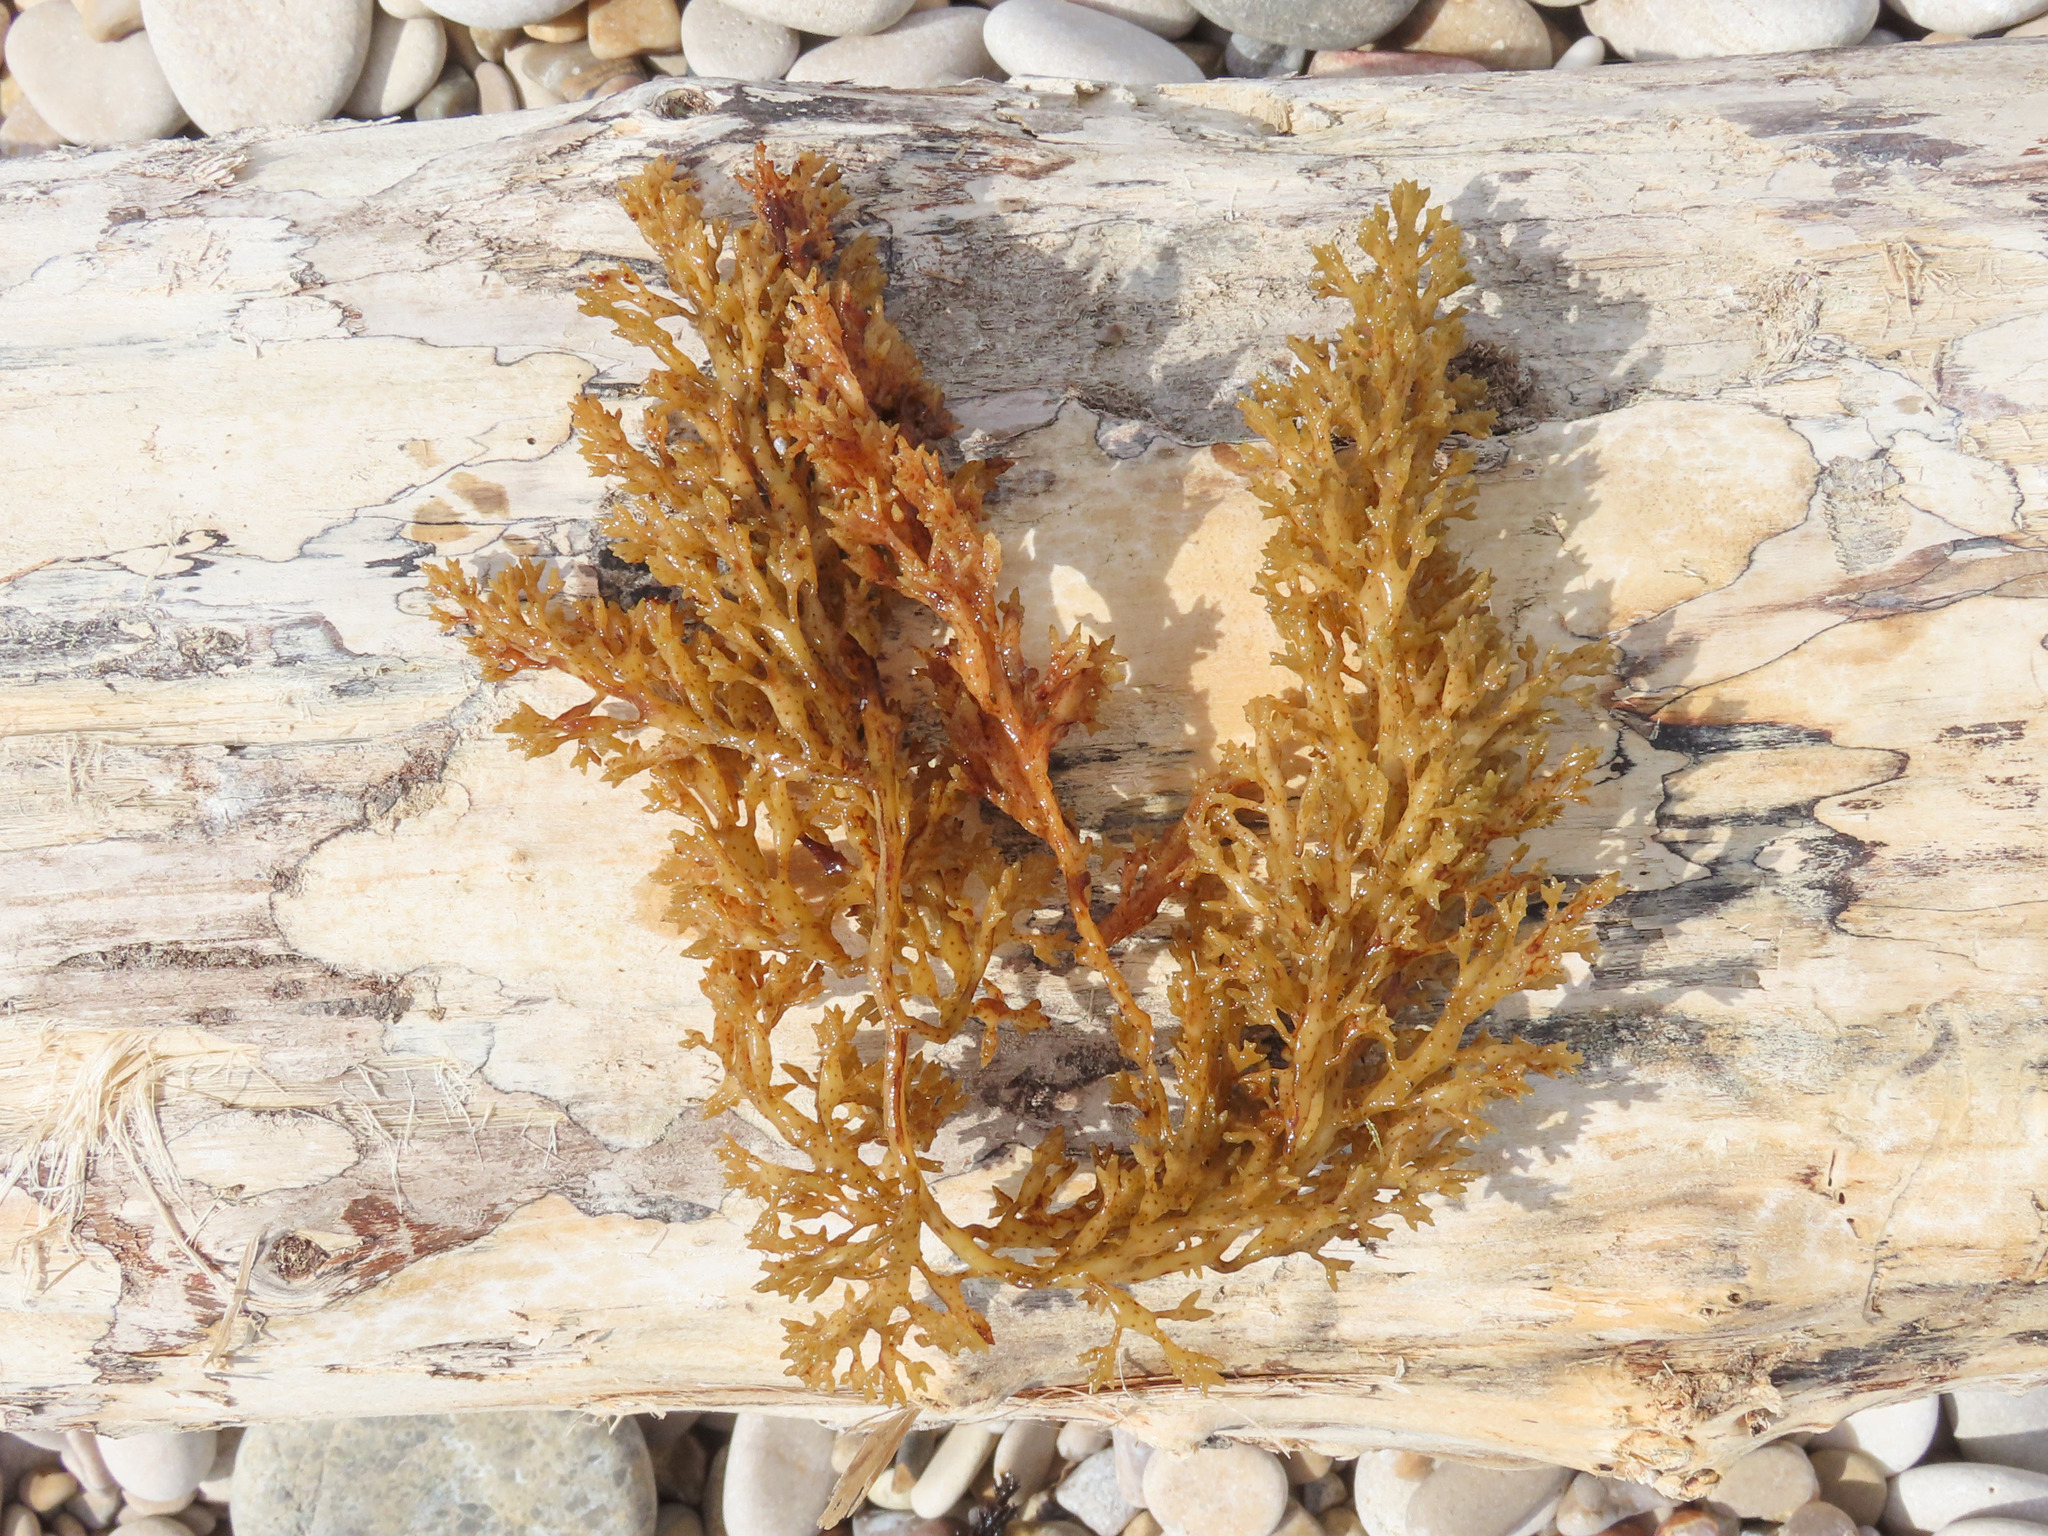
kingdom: Chromista
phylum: Ochrophyta
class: Phaeophyceae
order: Fucales
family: Sargassaceae
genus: Cystoseira
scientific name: Cystoseira compressa
